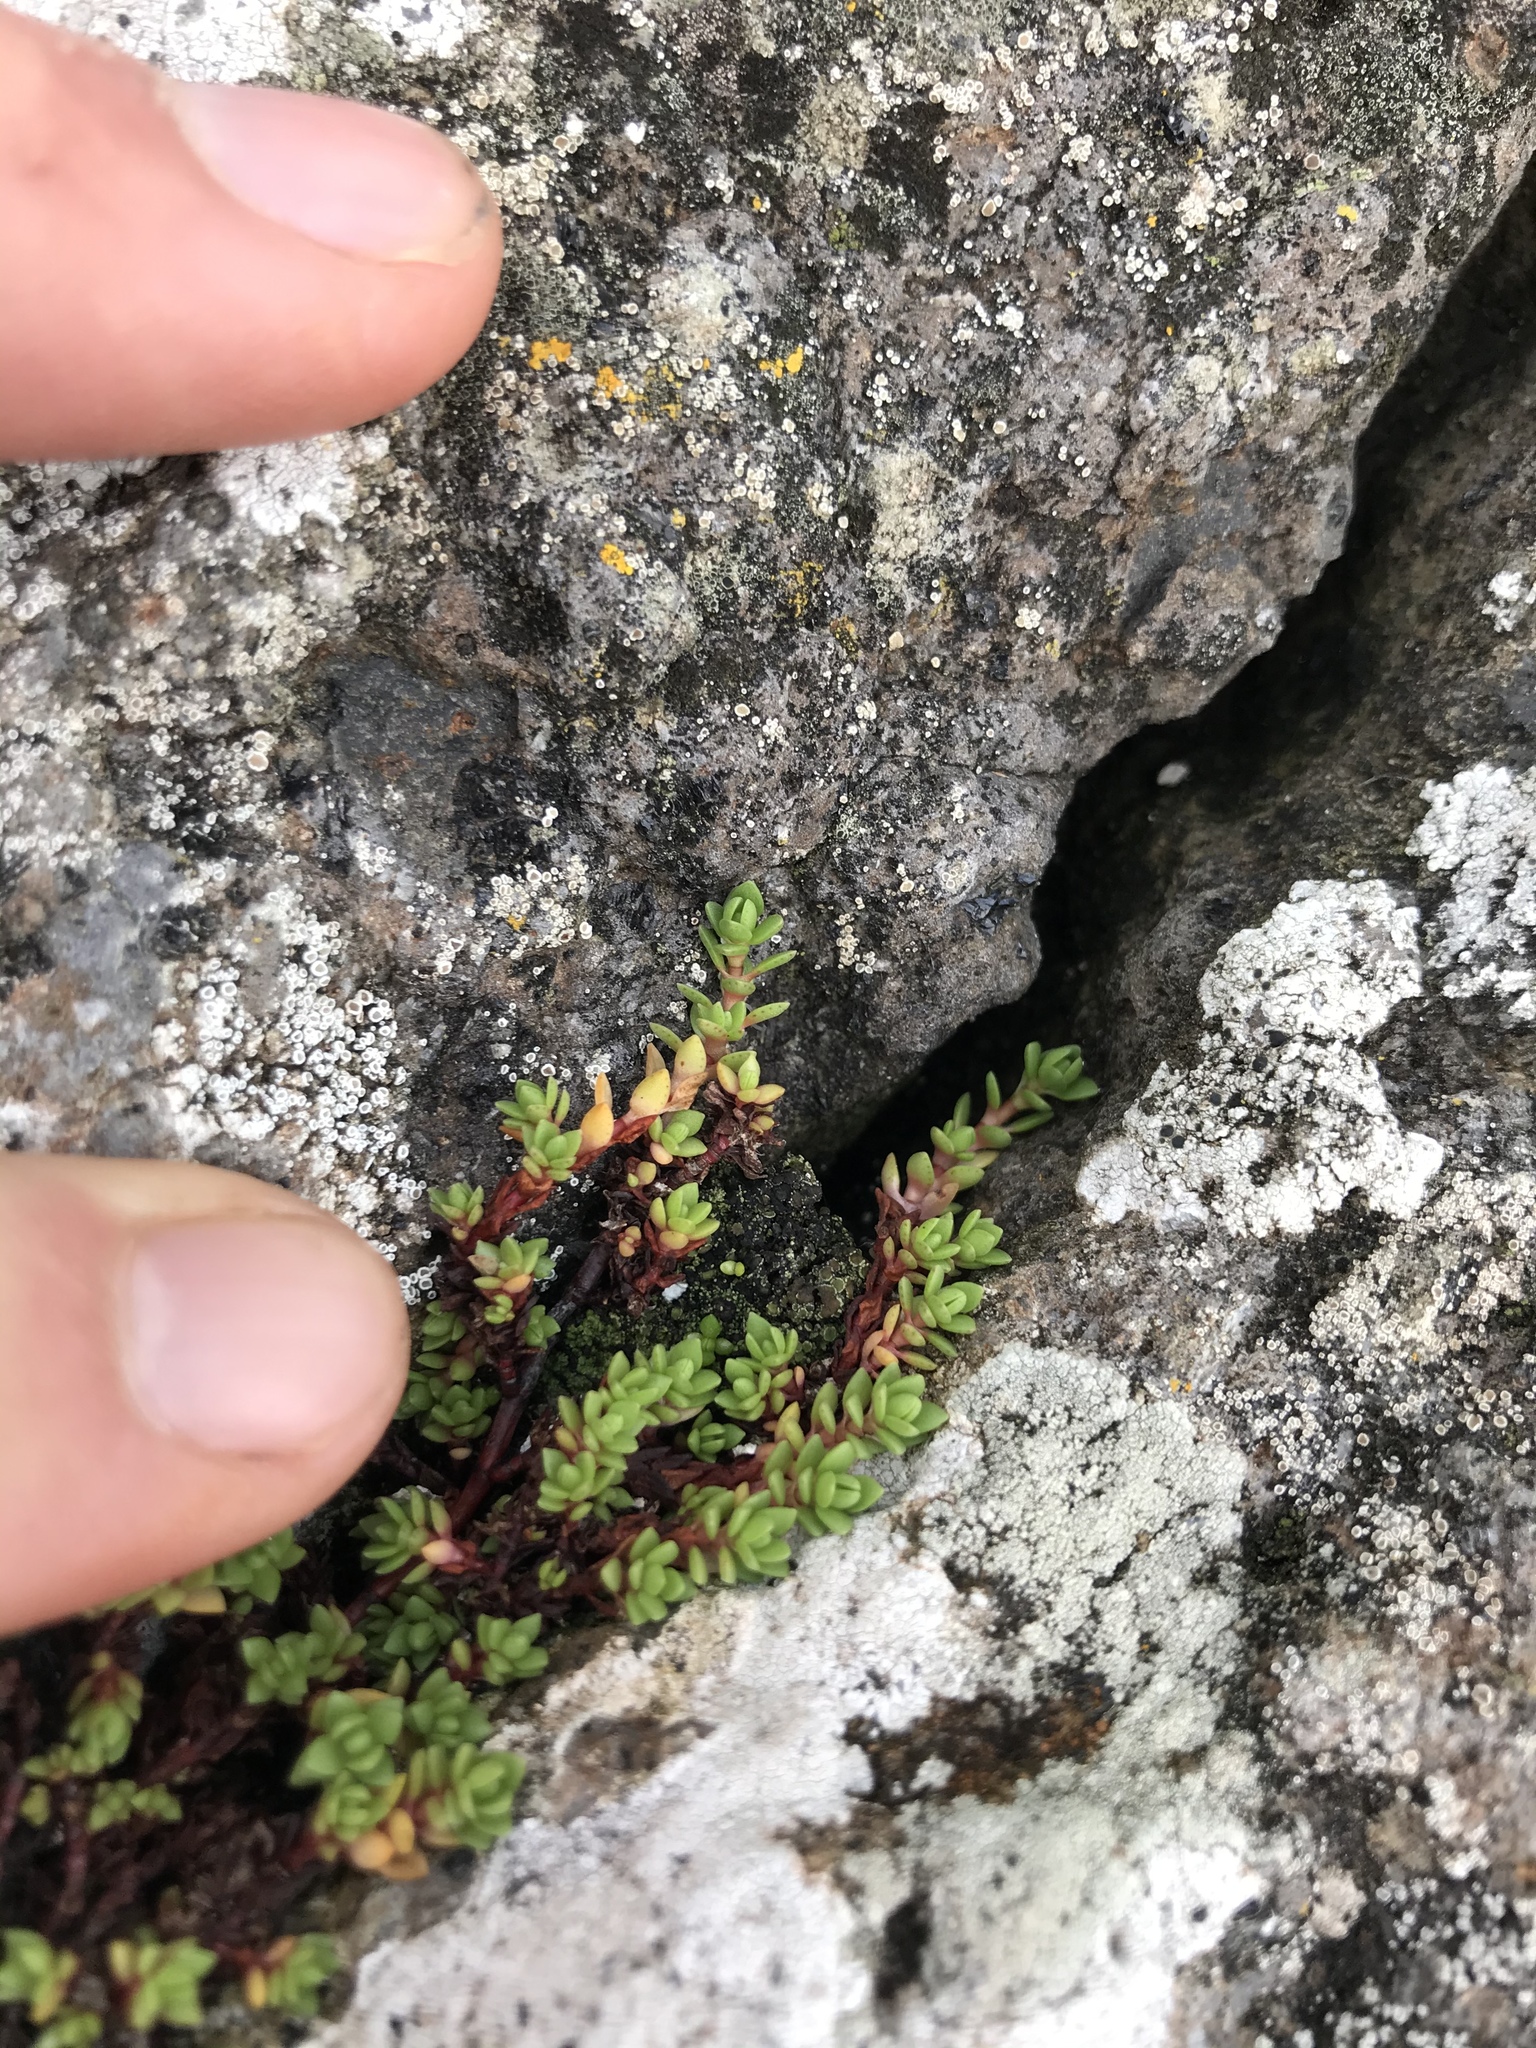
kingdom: Plantae
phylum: Tracheophyta
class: Magnoliopsida
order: Saxifragales
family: Crassulaceae
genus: Crassula
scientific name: Crassula moschata
